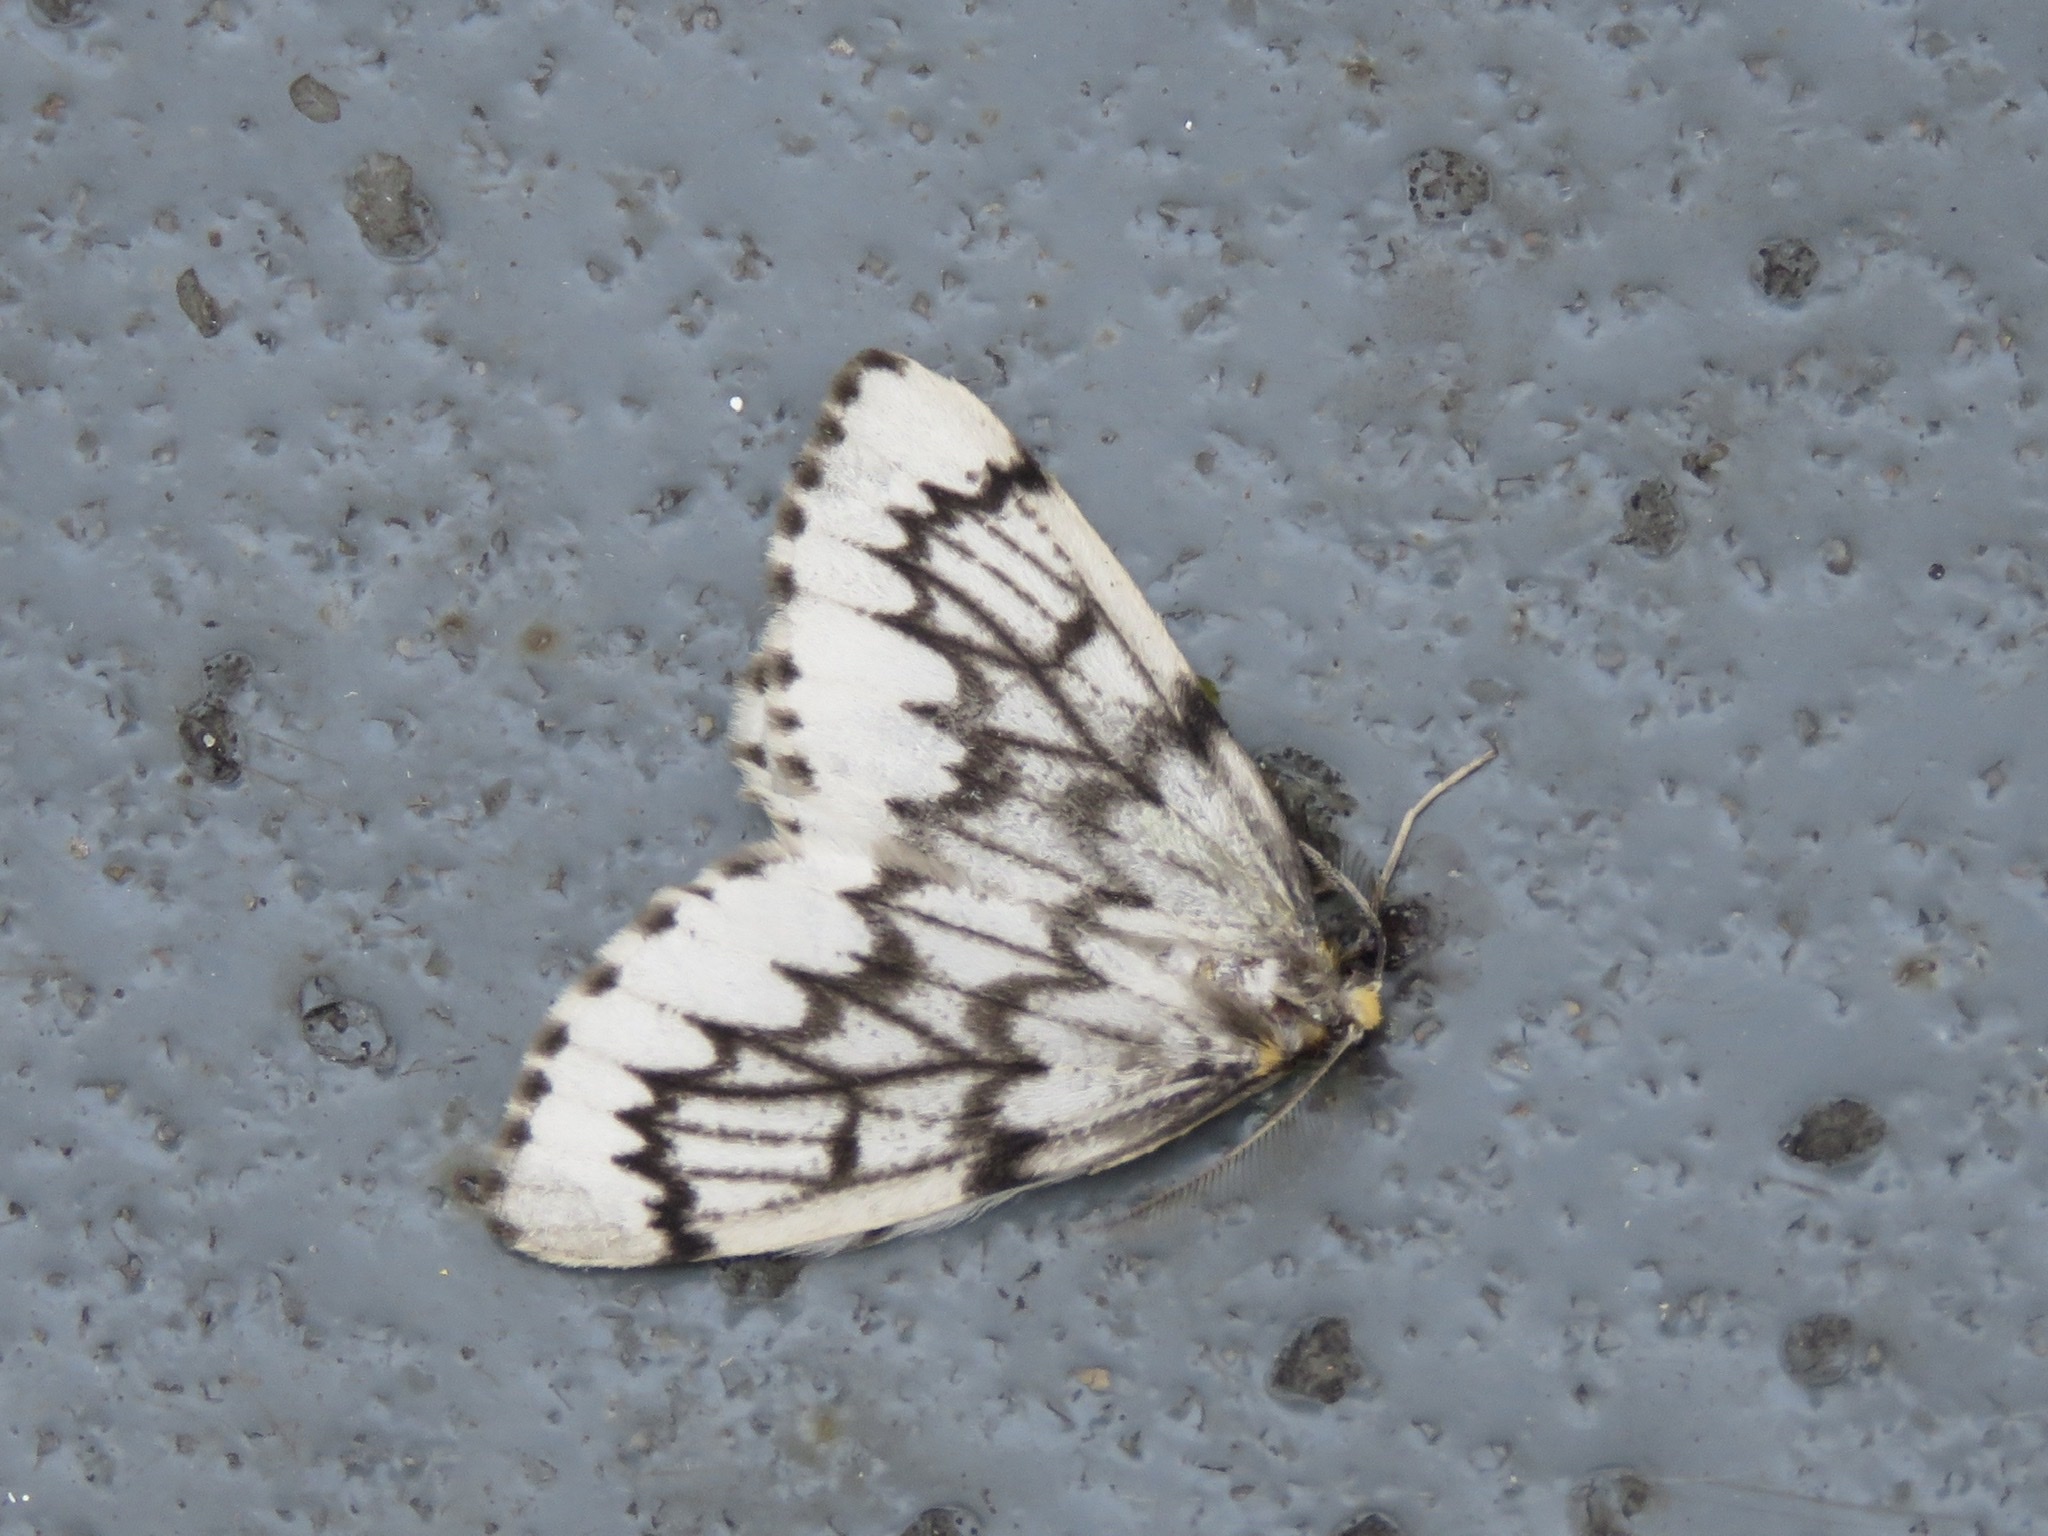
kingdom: Animalia
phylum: Arthropoda
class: Insecta
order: Lepidoptera
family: Geometridae
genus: Nepytia
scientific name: Nepytia phantasmaria
